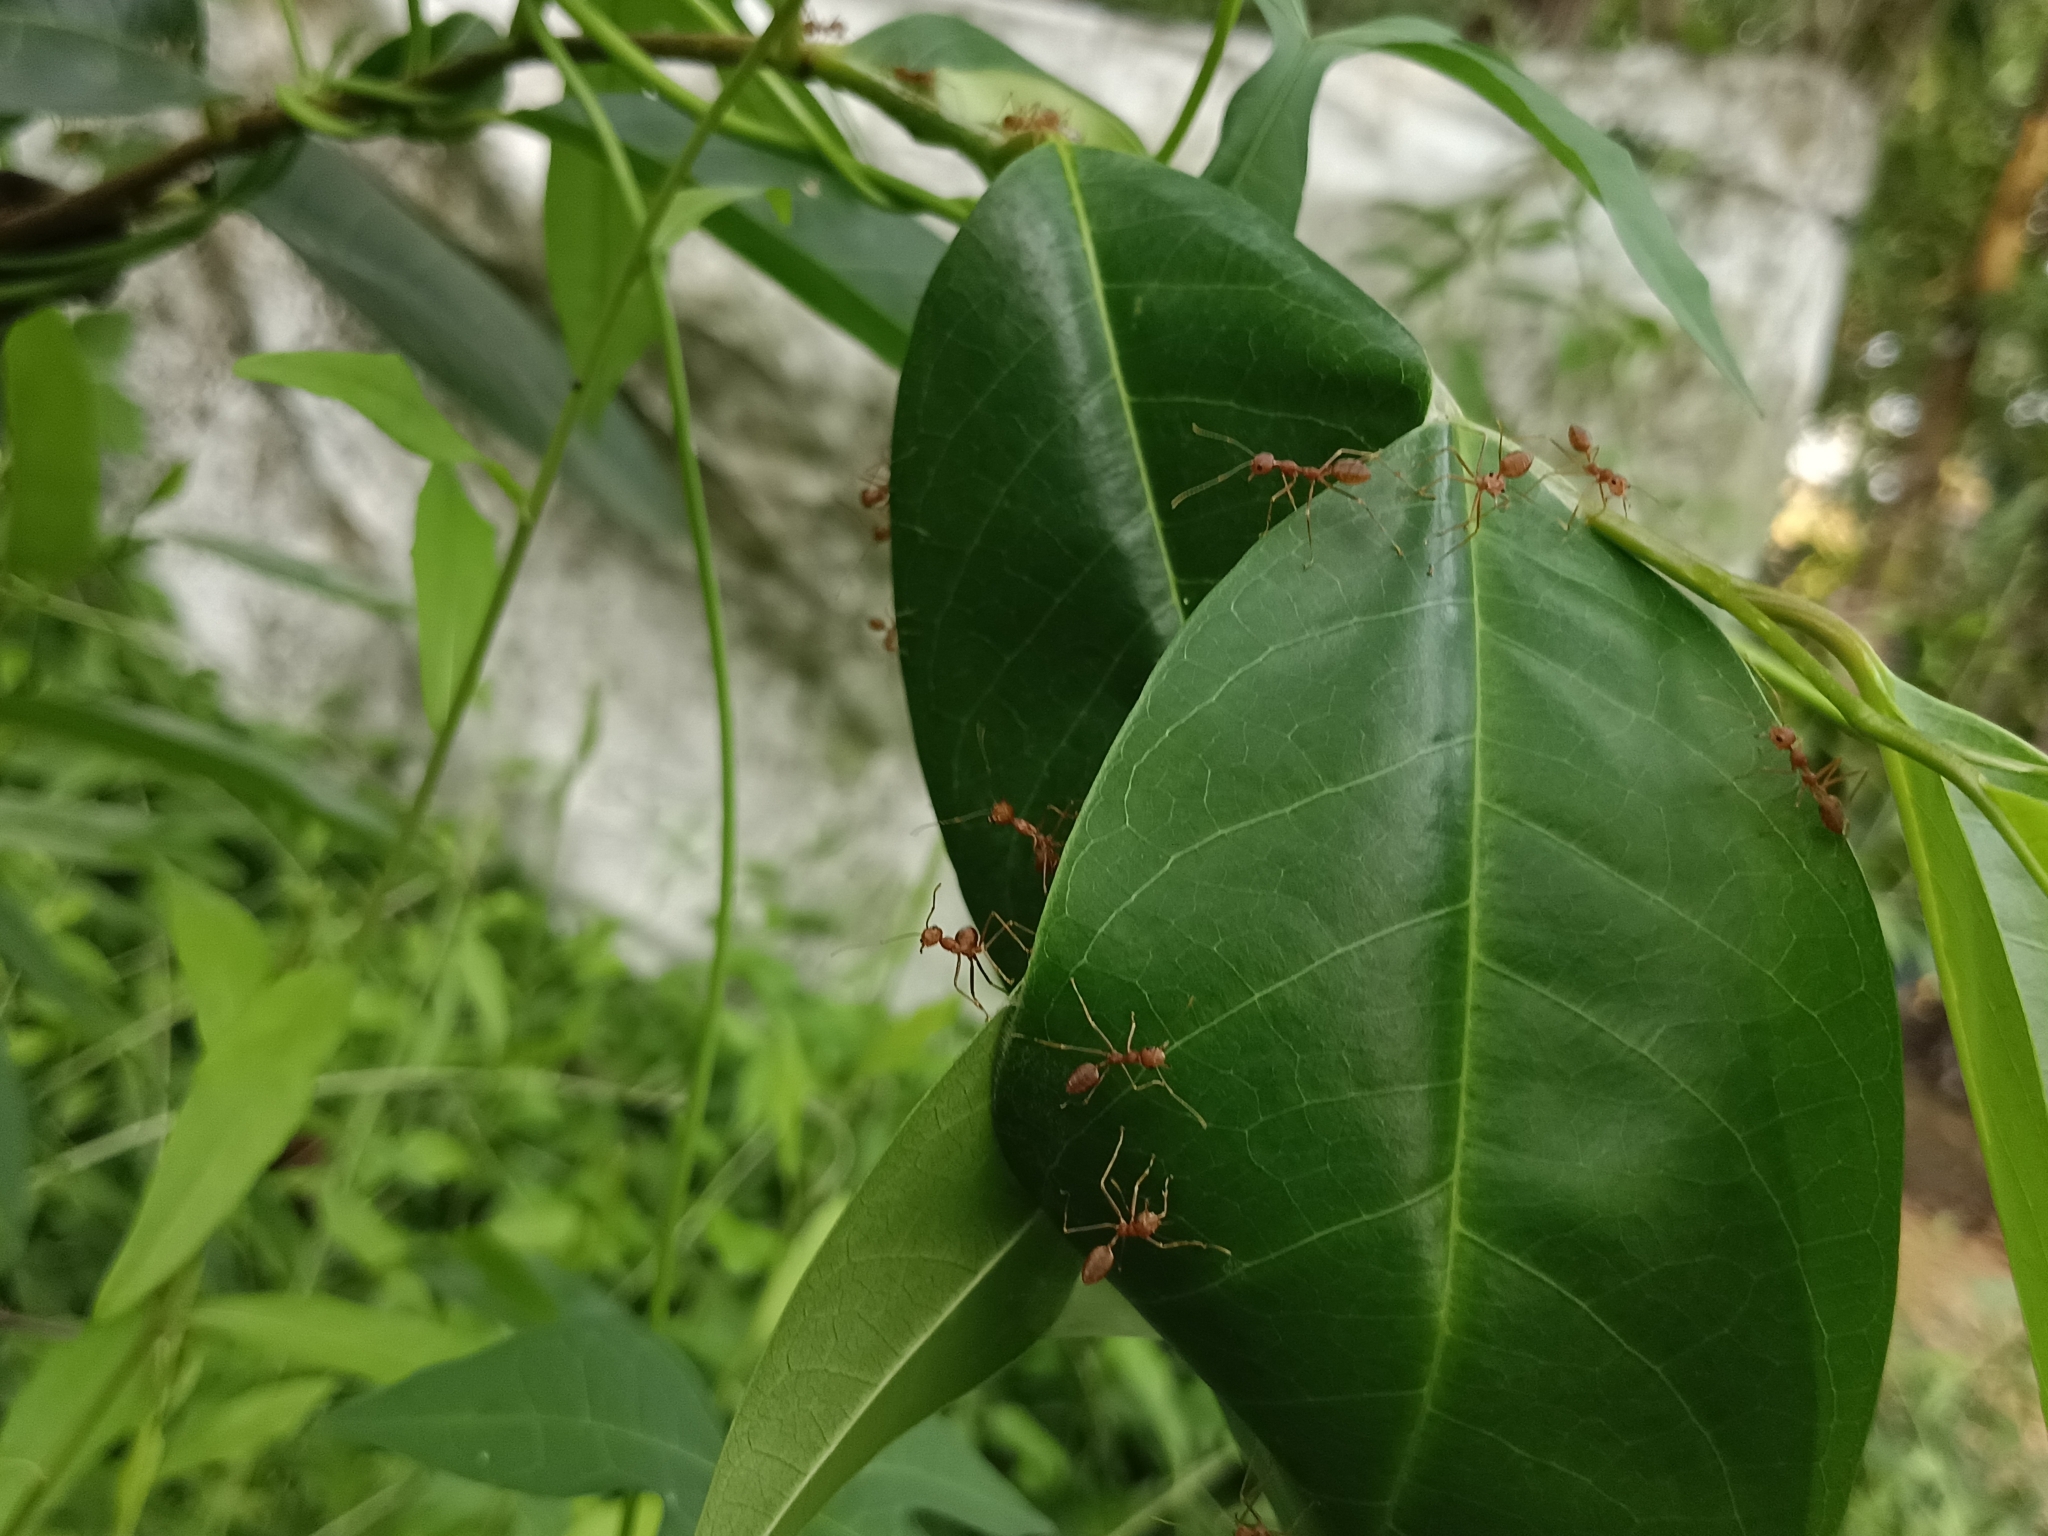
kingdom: Animalia
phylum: Arthropoda
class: Insecta
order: Hymenoptera
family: Formicidae
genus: Oecophylla
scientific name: Oecophylla smaragdina
